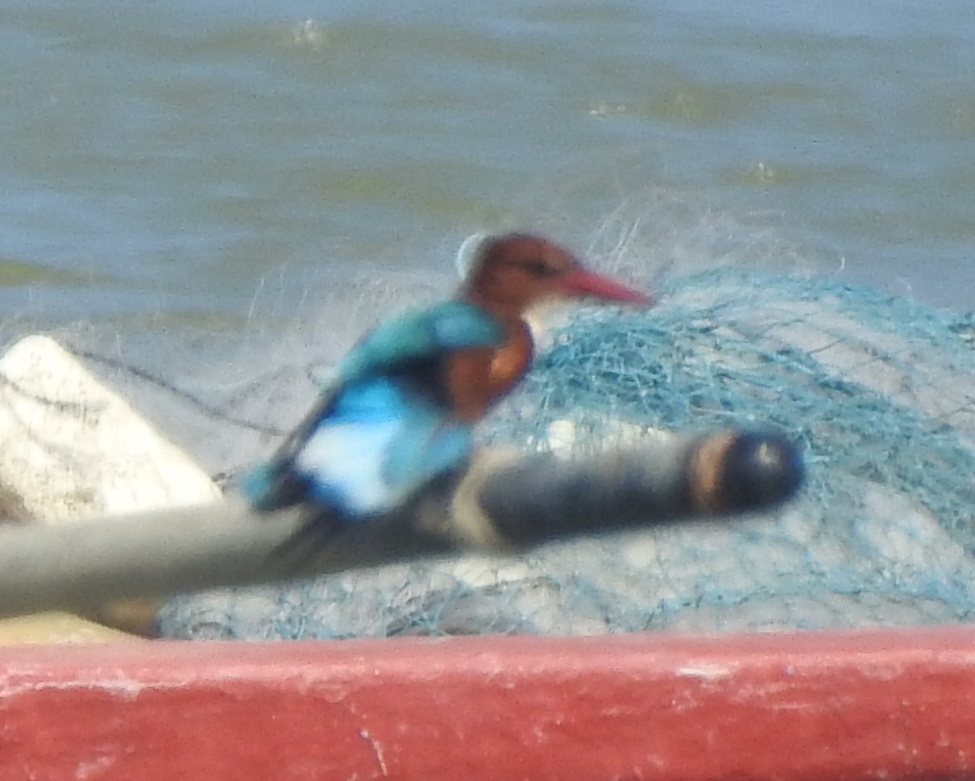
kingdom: Animalia
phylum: Chordata
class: Aves
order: Coraciiformes
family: Alcedinidae
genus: Halcyon
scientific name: Halcyon smyrnensis
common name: White-throated kingfisher
